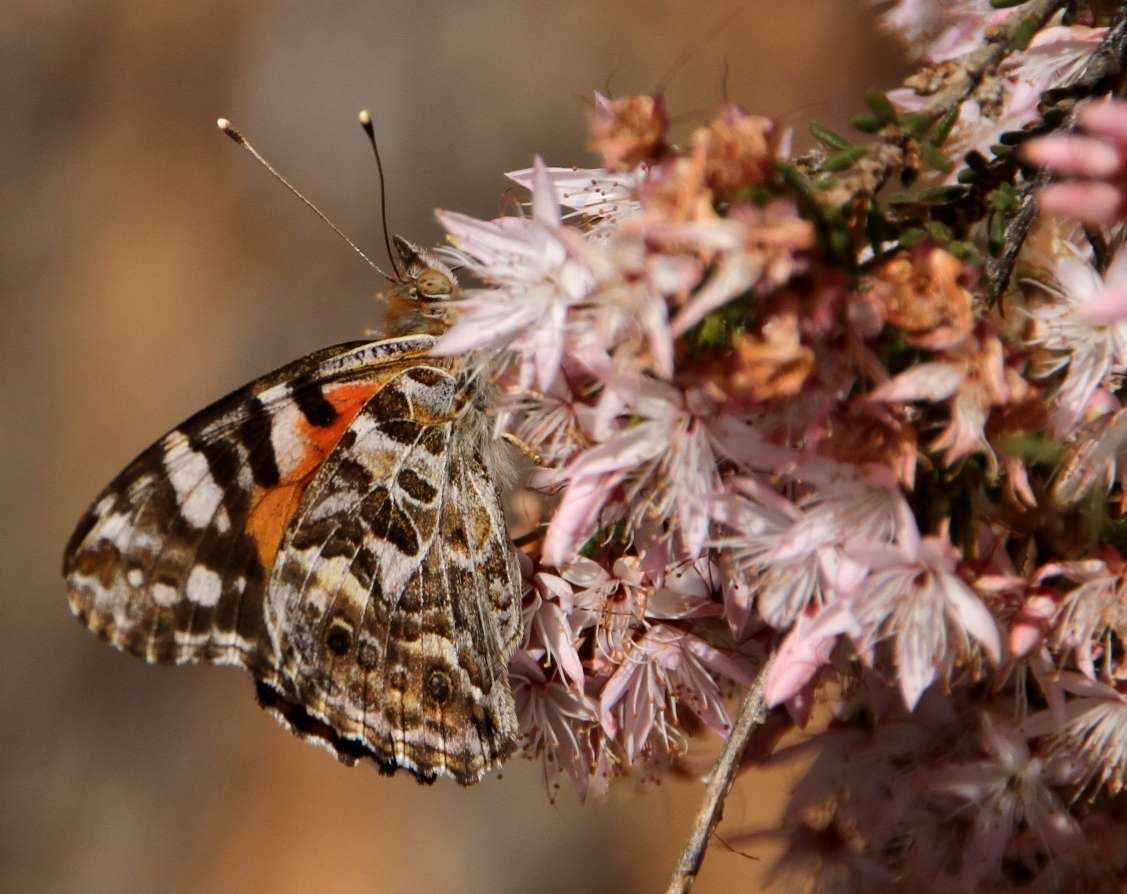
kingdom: Animalia
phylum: Arthropoda
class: Insecta
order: Lepidoptera
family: Nymphalidae
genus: Vanessa
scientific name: Vanessa kershawi
